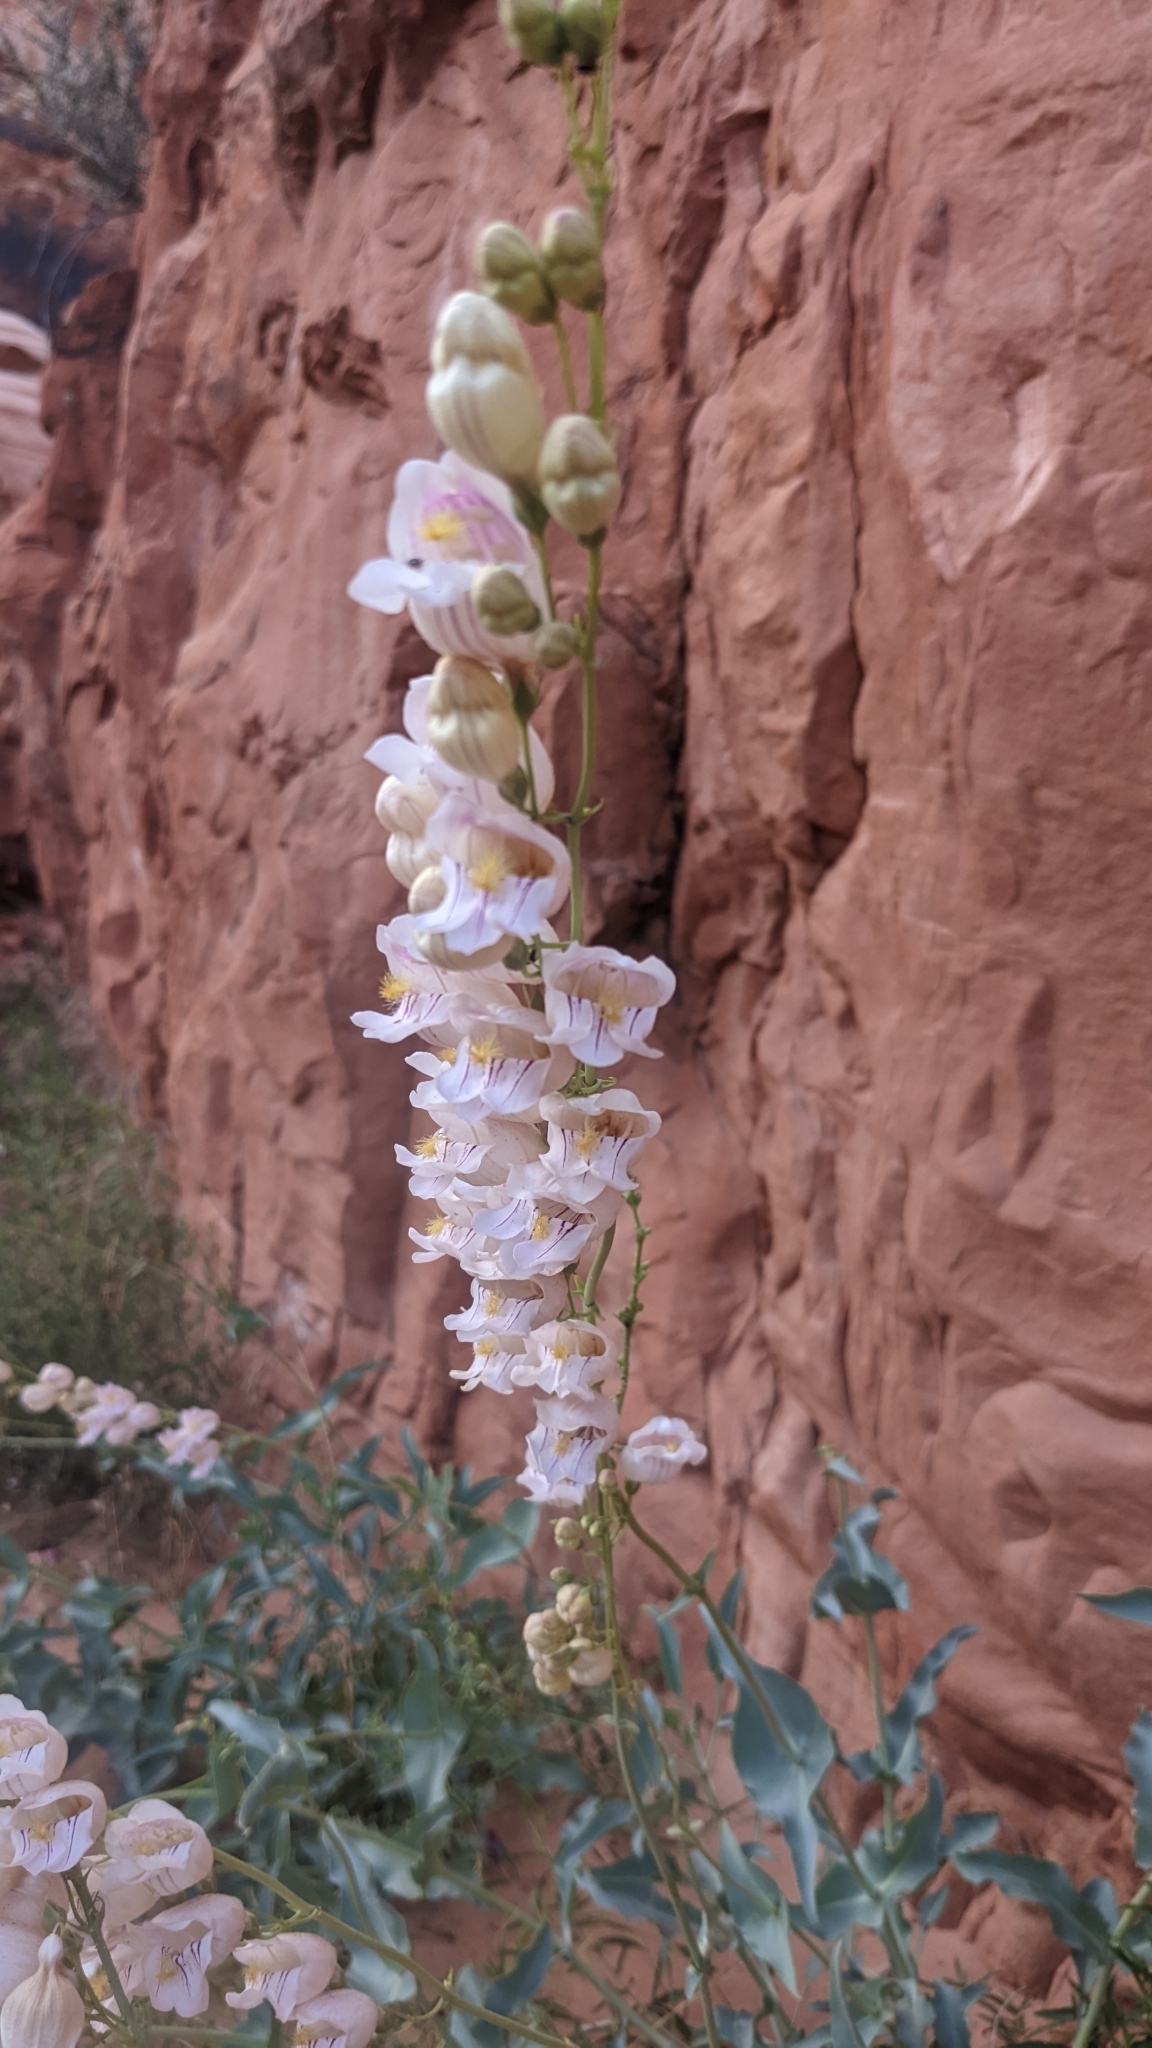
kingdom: Plantae
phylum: Tracheophyta
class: Magnoliopsida
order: Lamiales
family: Plantaginaceae
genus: Penstemon
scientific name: Penstemon palmeri
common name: Palmer penstemon
